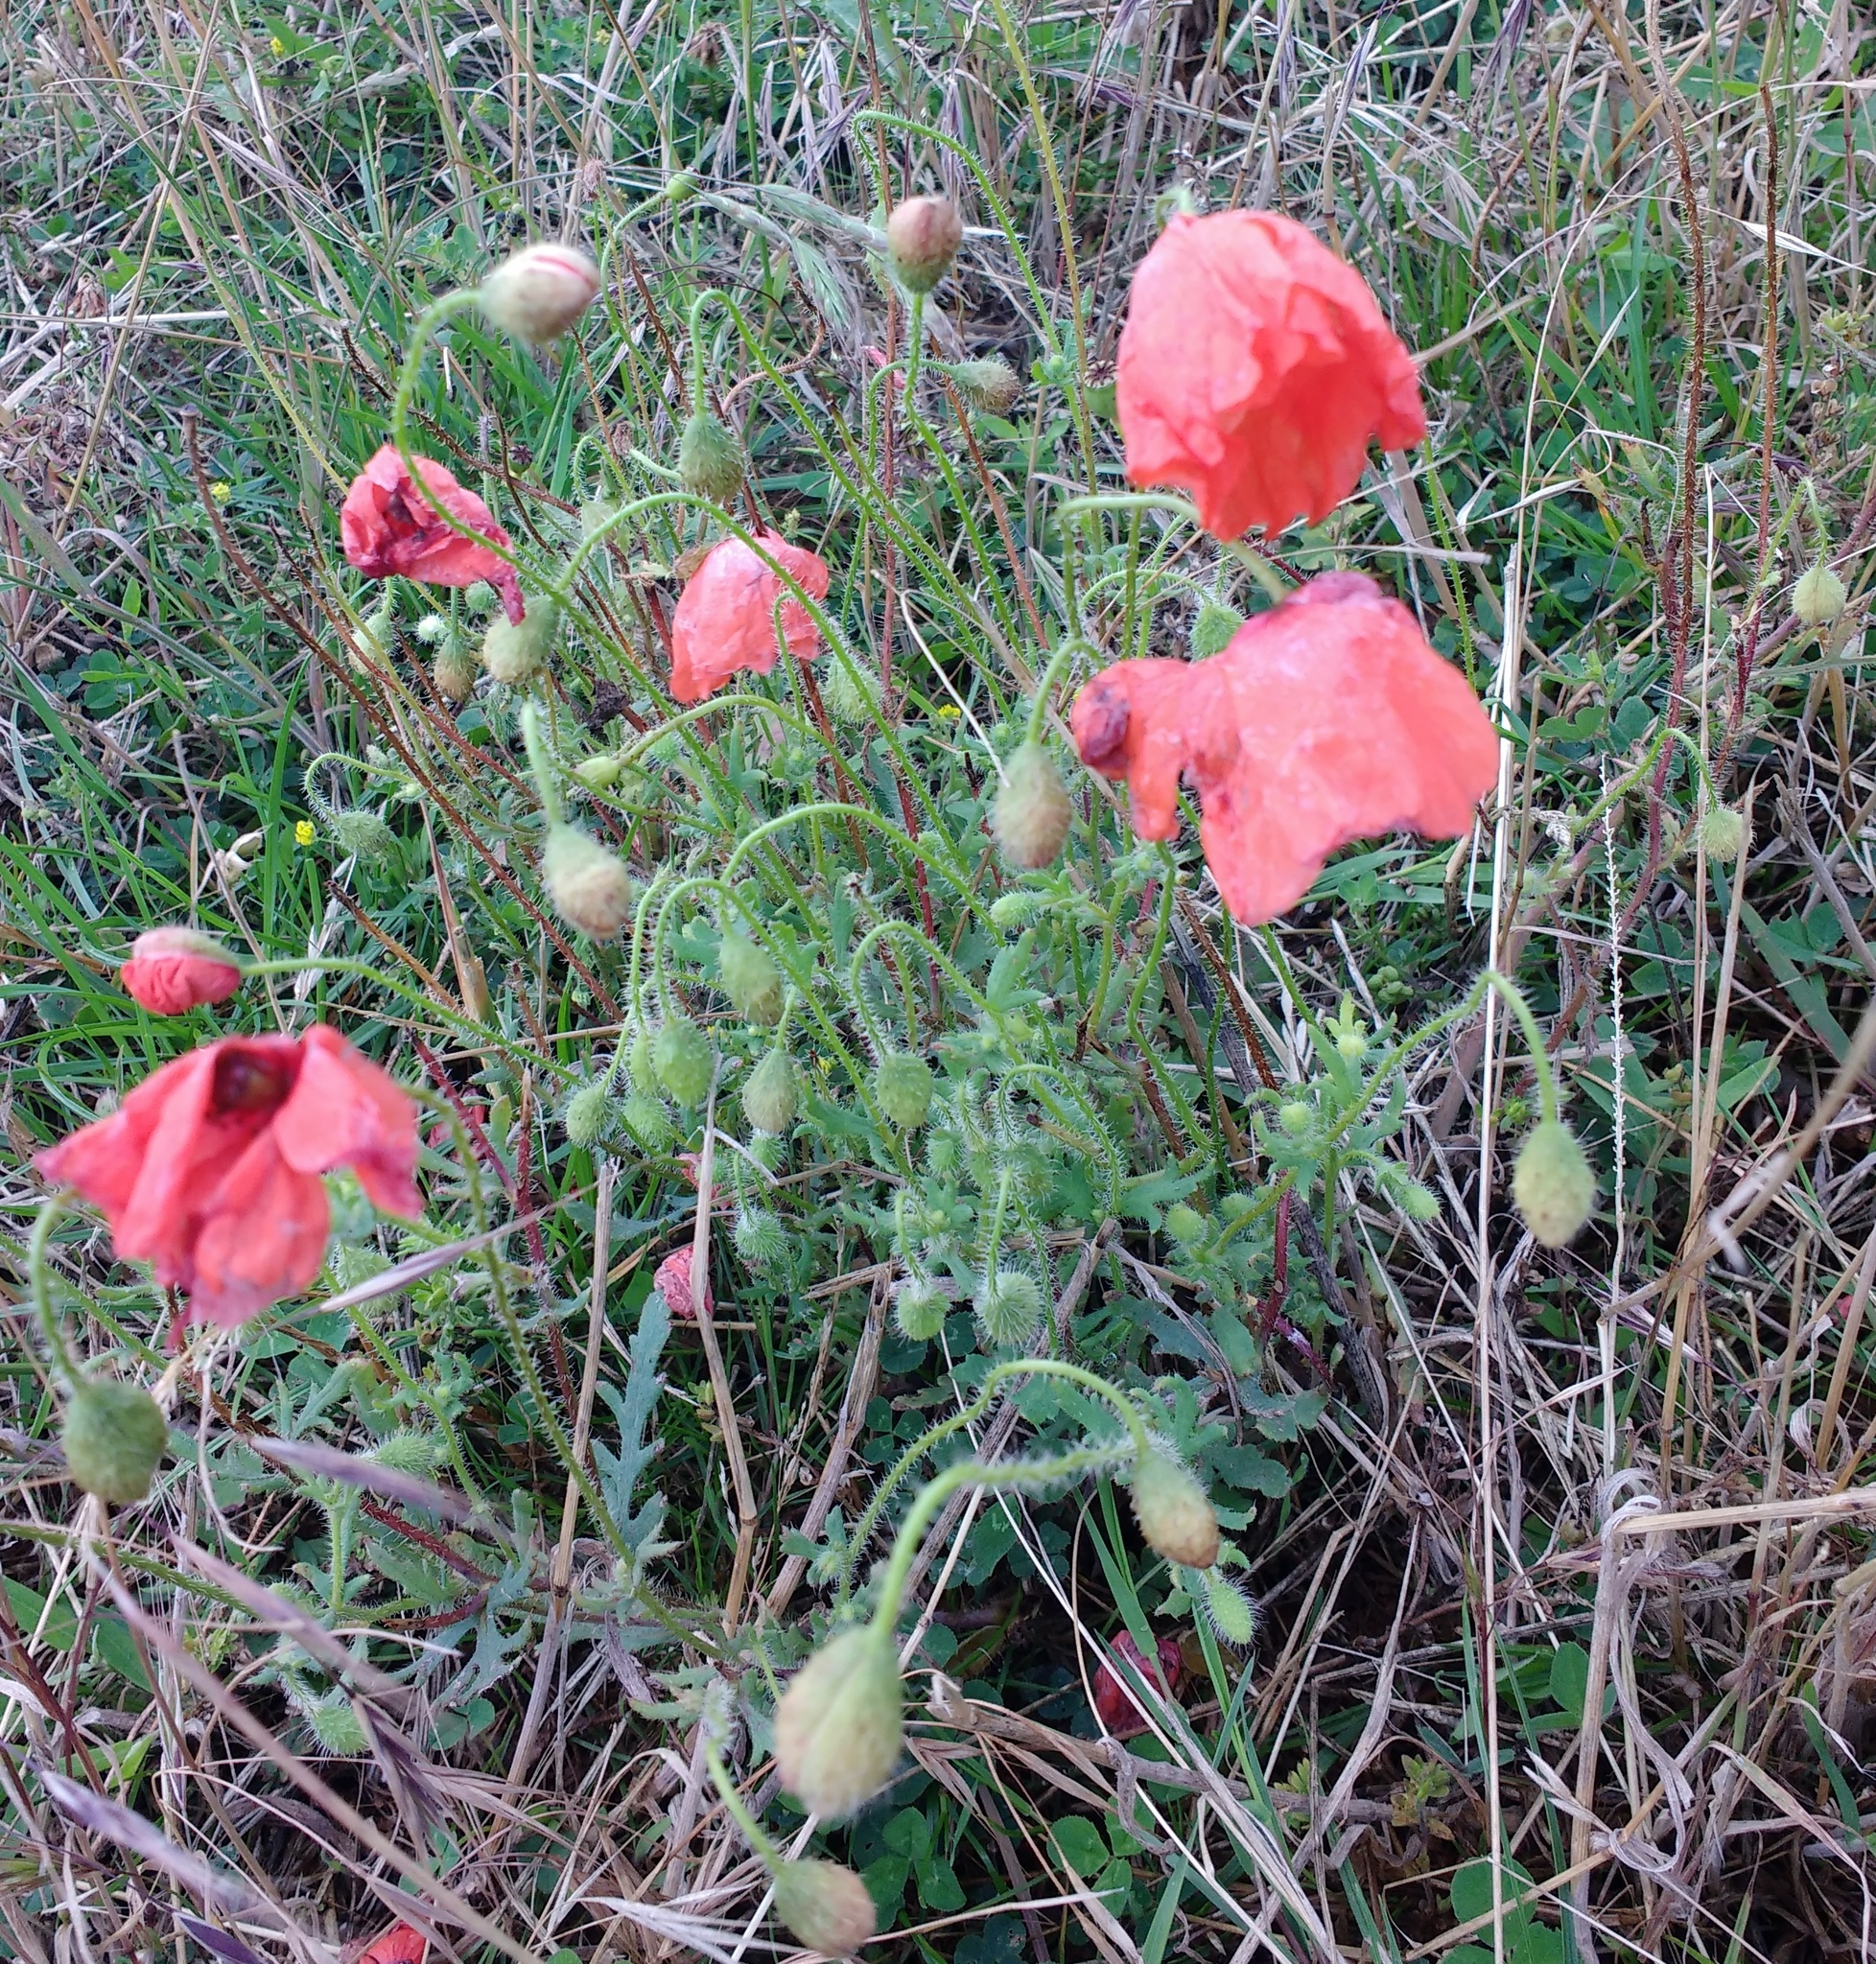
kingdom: Plantae
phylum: Tracheophyta
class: Magnoliopsida
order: Ranunculales
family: Papaveraceae
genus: Papaver
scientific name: Papaver rhoeas
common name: Corn poppy
